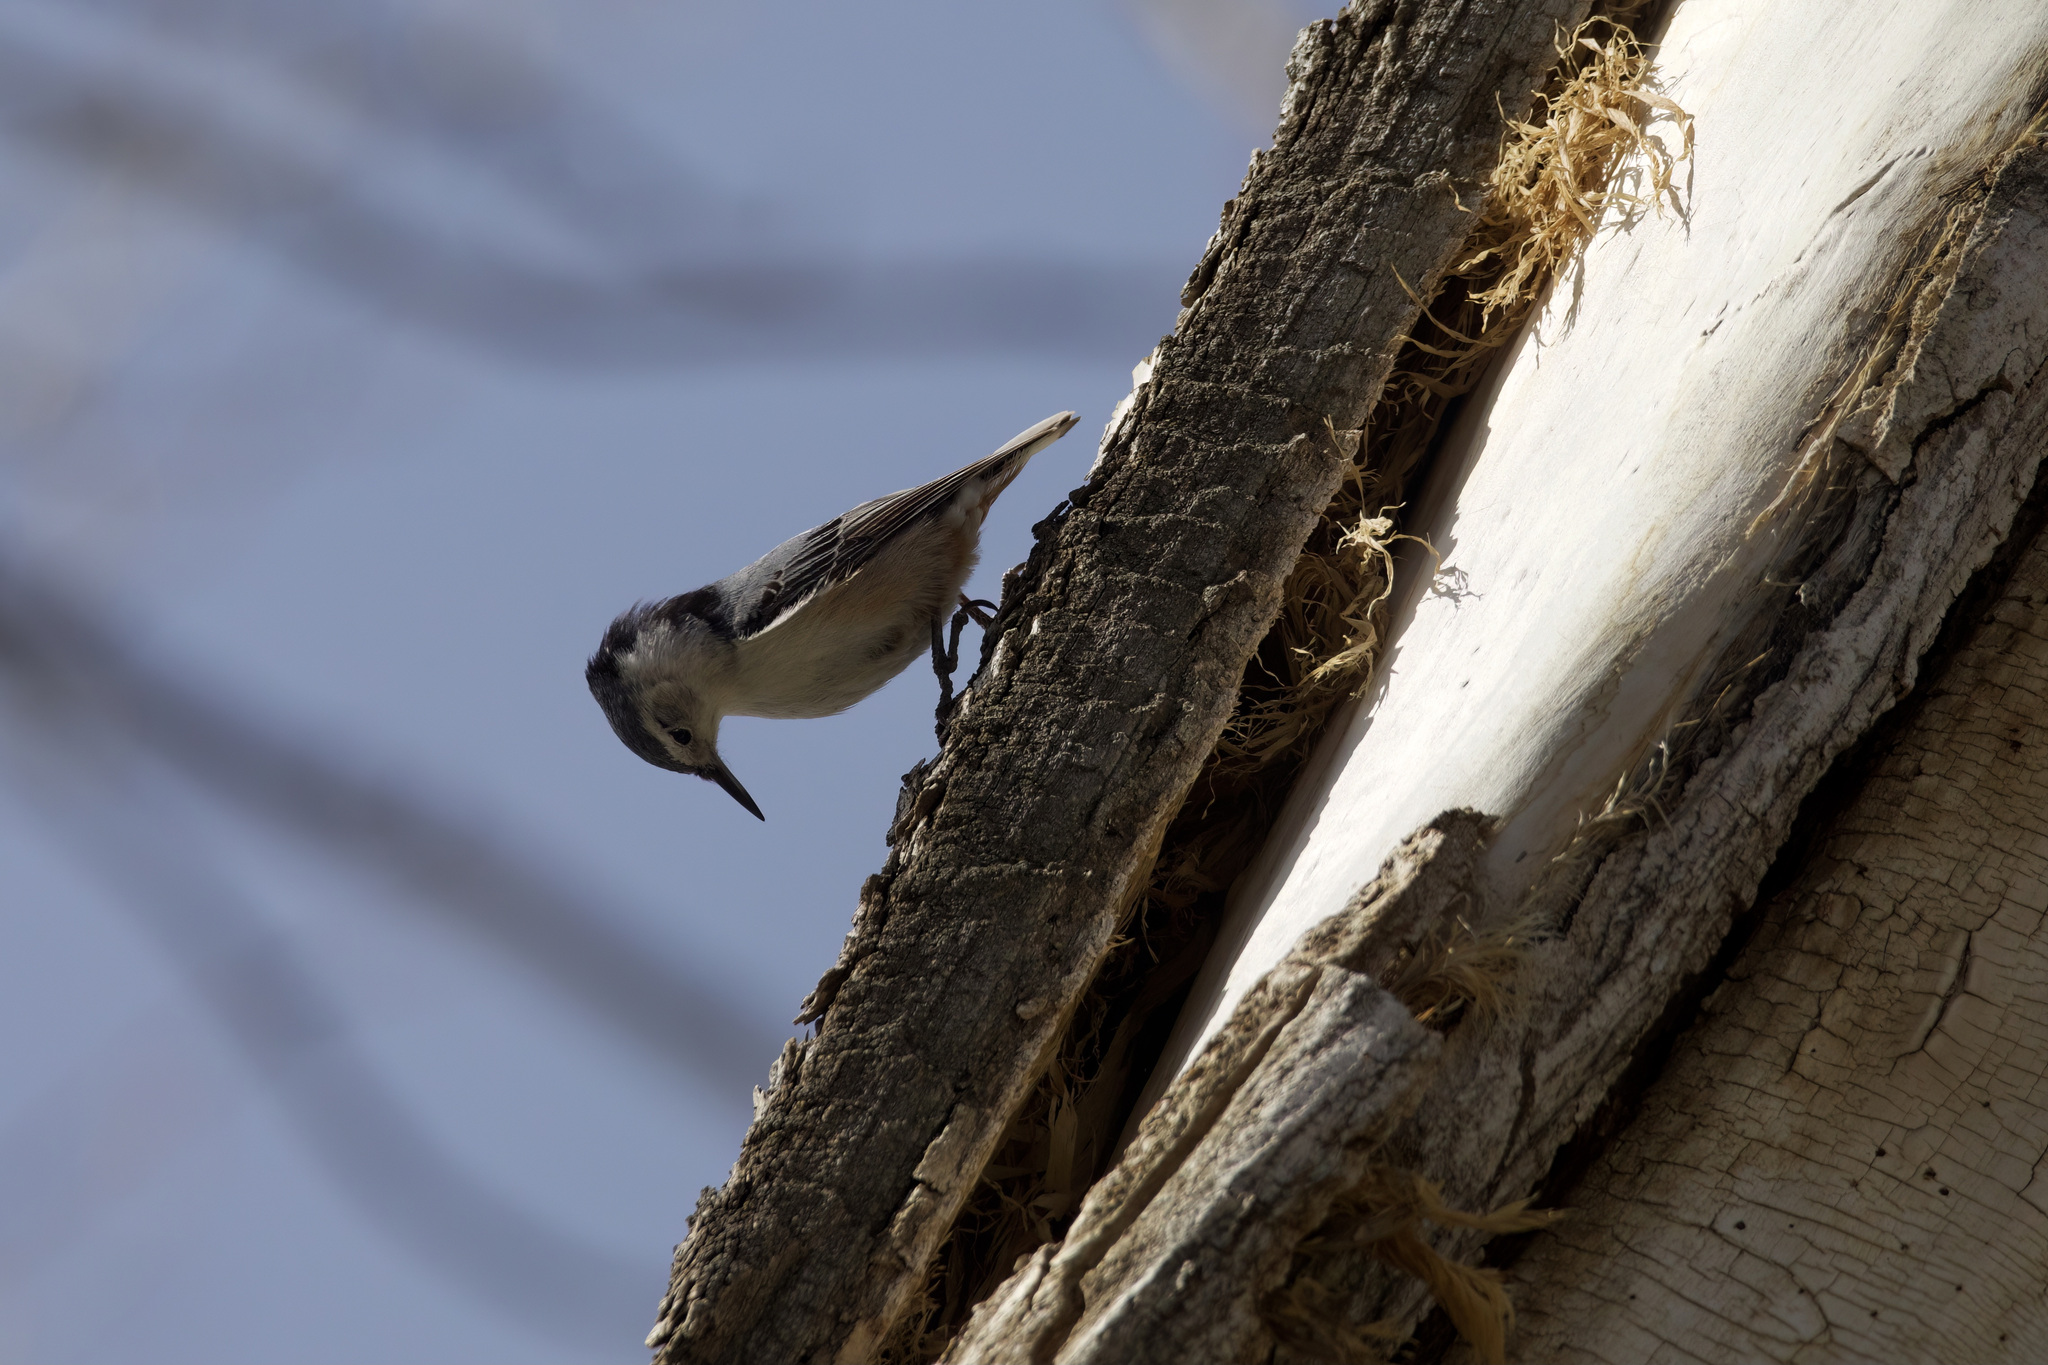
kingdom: Animalia
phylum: Chordata
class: Aves
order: Passeriformes
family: Sittidae
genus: Sitta
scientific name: Sitta carolinensis
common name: White-breasted nuthatch
